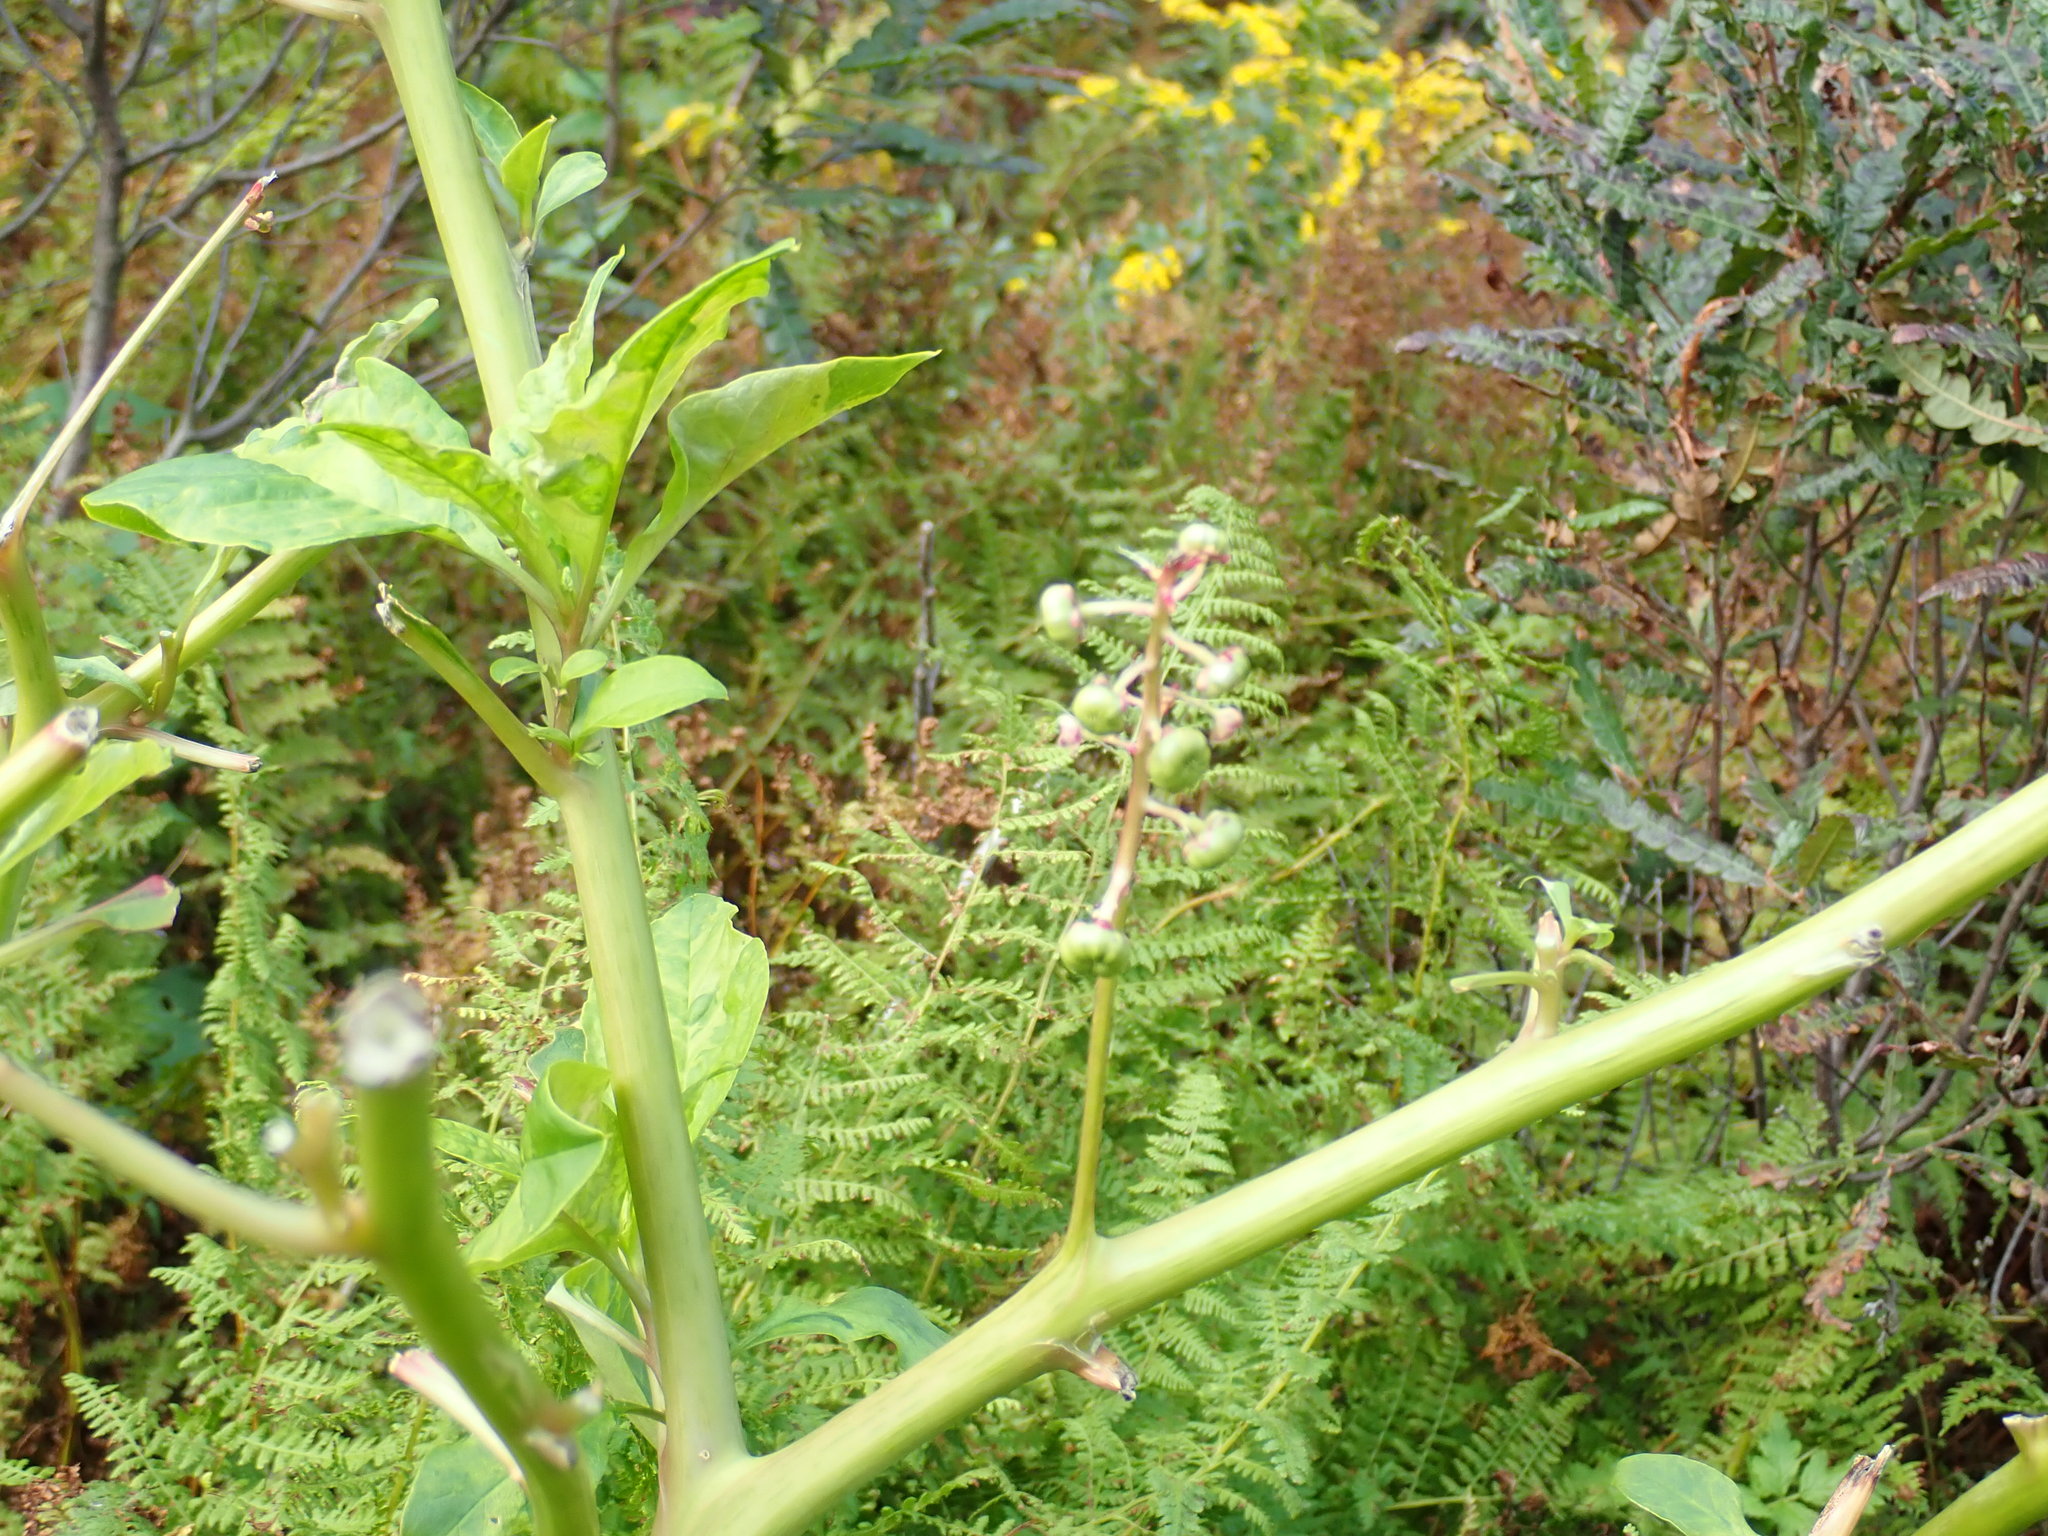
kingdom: Plantae
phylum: Tracheophyta
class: Magnoliopsida
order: Caryophyllales
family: Phytolaccaceae
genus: Phytolacca
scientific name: Phytolacca americana
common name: American pokeweed
